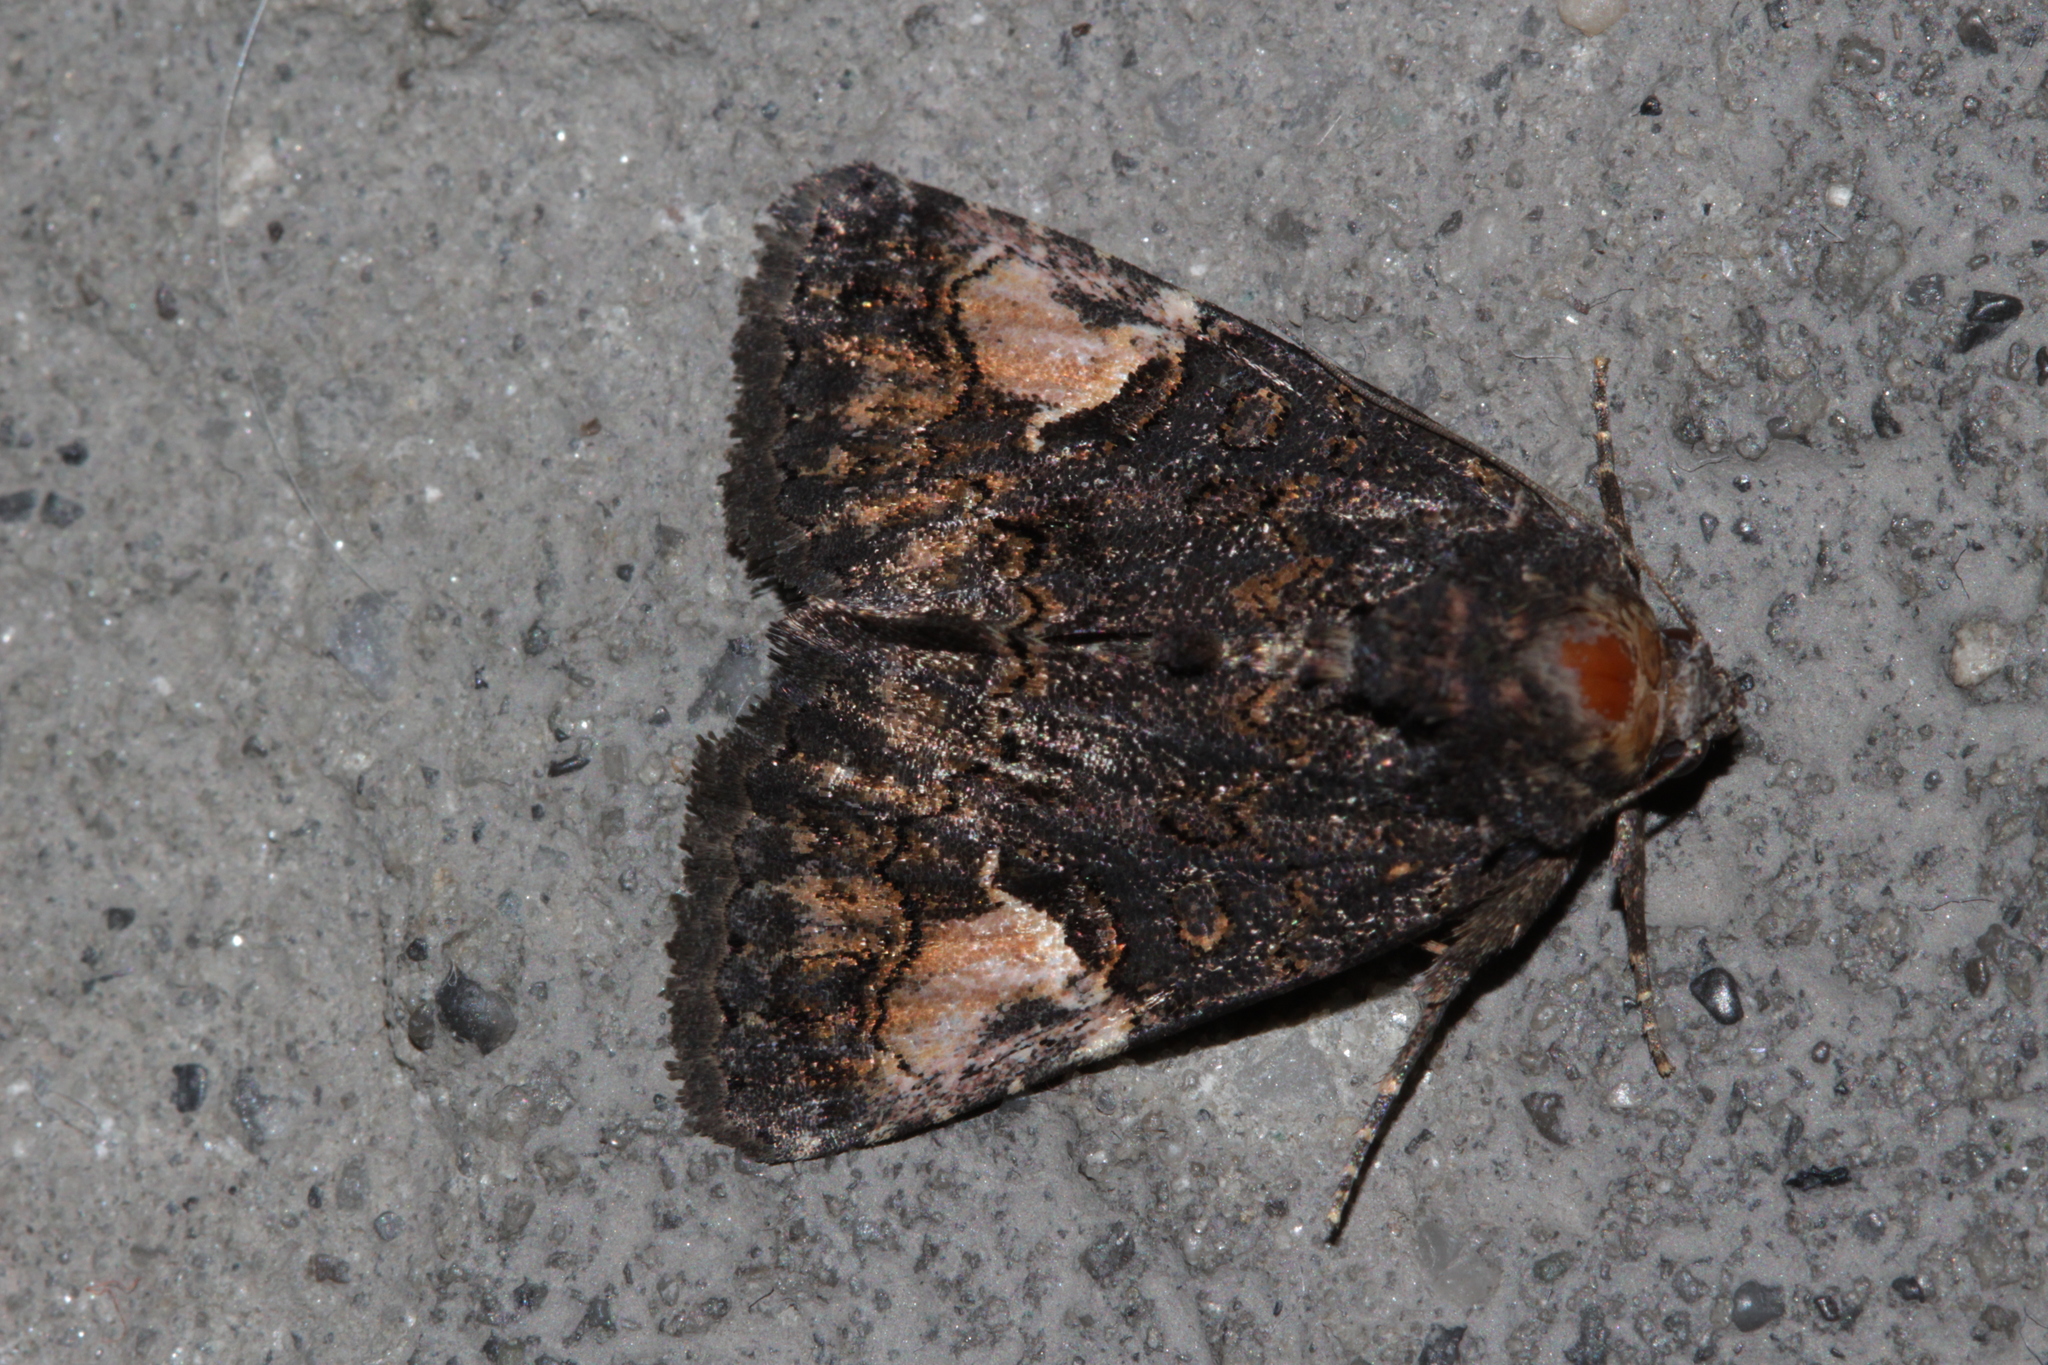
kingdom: Animalia
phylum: Arthropoda
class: Insecta
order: Lepidoptera
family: Noctuidae
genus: Aedia
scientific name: Aedia funesta
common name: The druid
